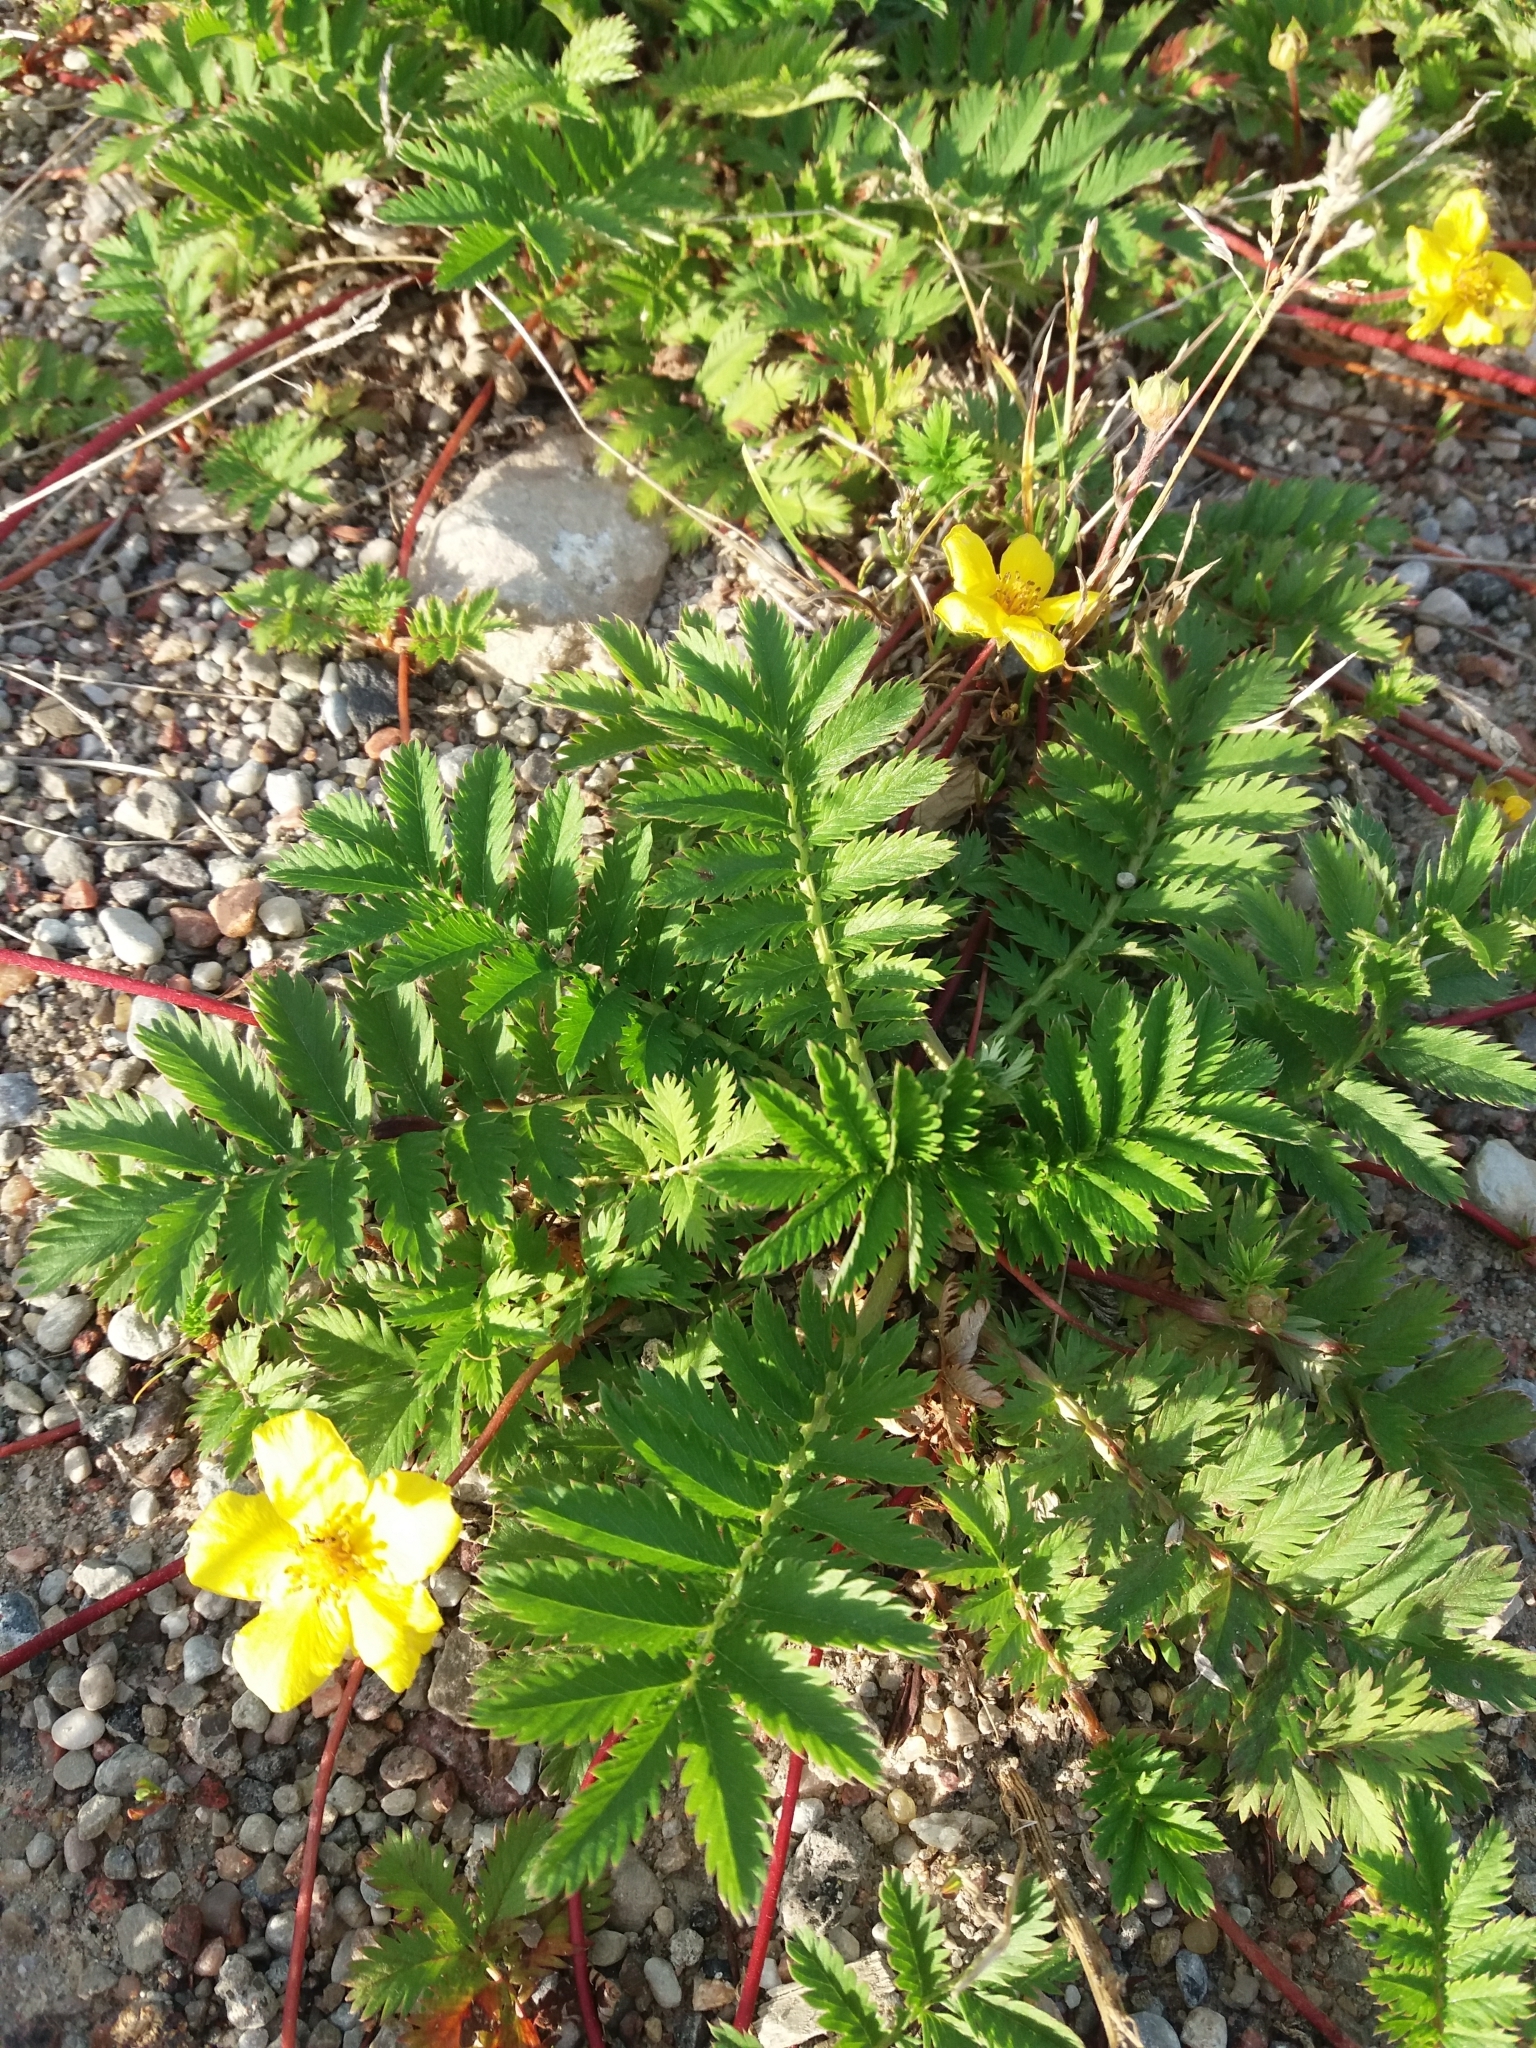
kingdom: Plantae
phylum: Tracheophyta
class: Magnoliopsida
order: Rosales
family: Rosaceae
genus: Argentina
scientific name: Argentina anserina
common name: Common silverweed
